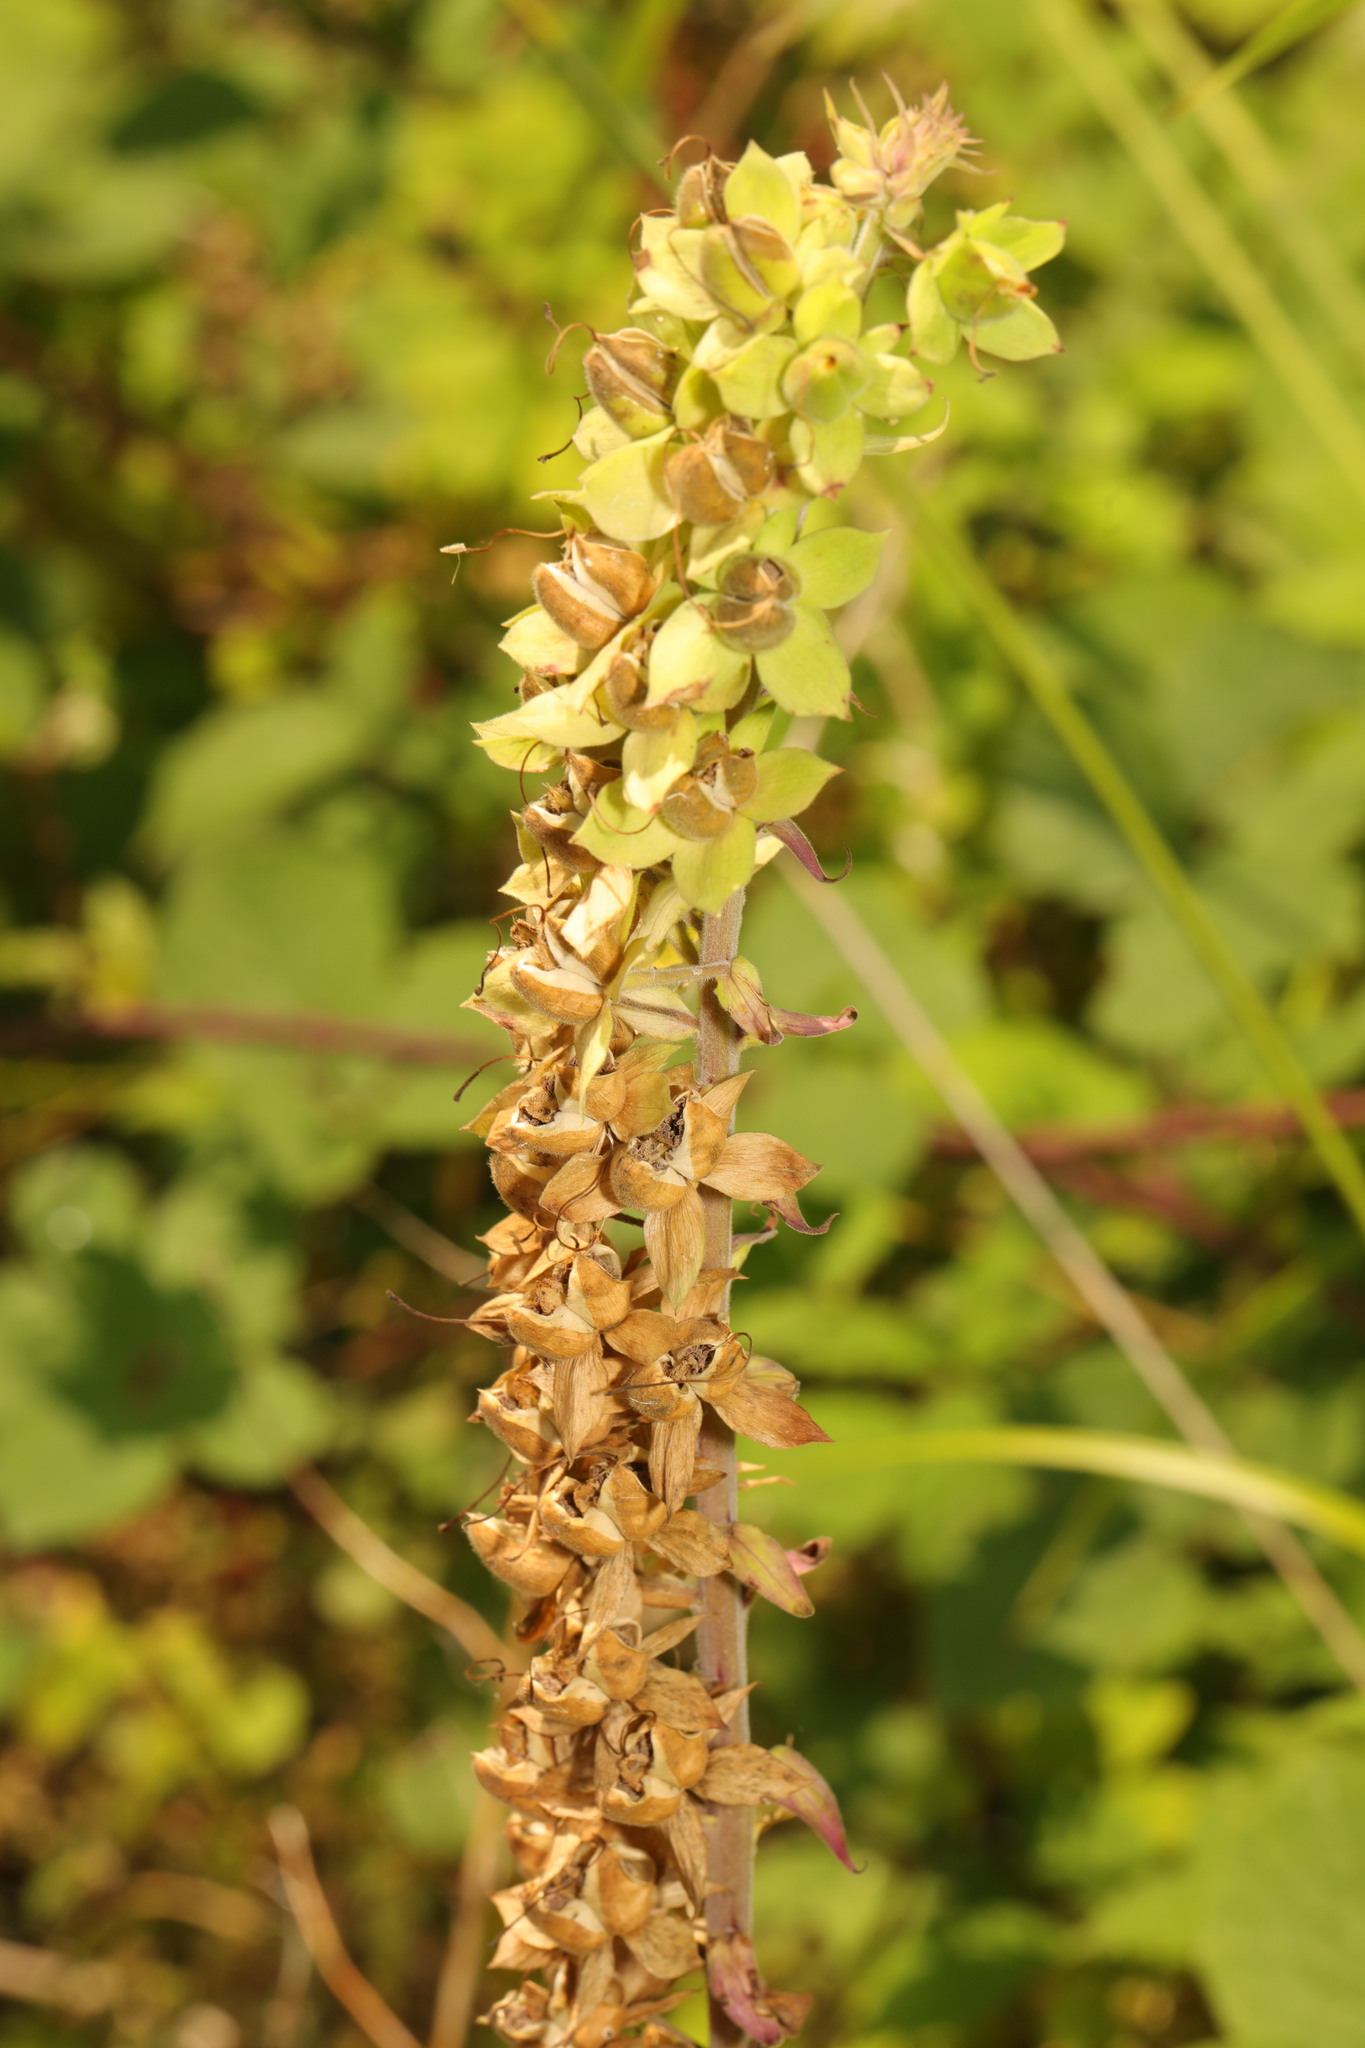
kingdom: Plantae
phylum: Tracheophyta
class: Magnoliopsida
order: Lamiales
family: Plantaginaceae
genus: Digitalis
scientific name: Digitalis purpurea
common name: Foxglove
